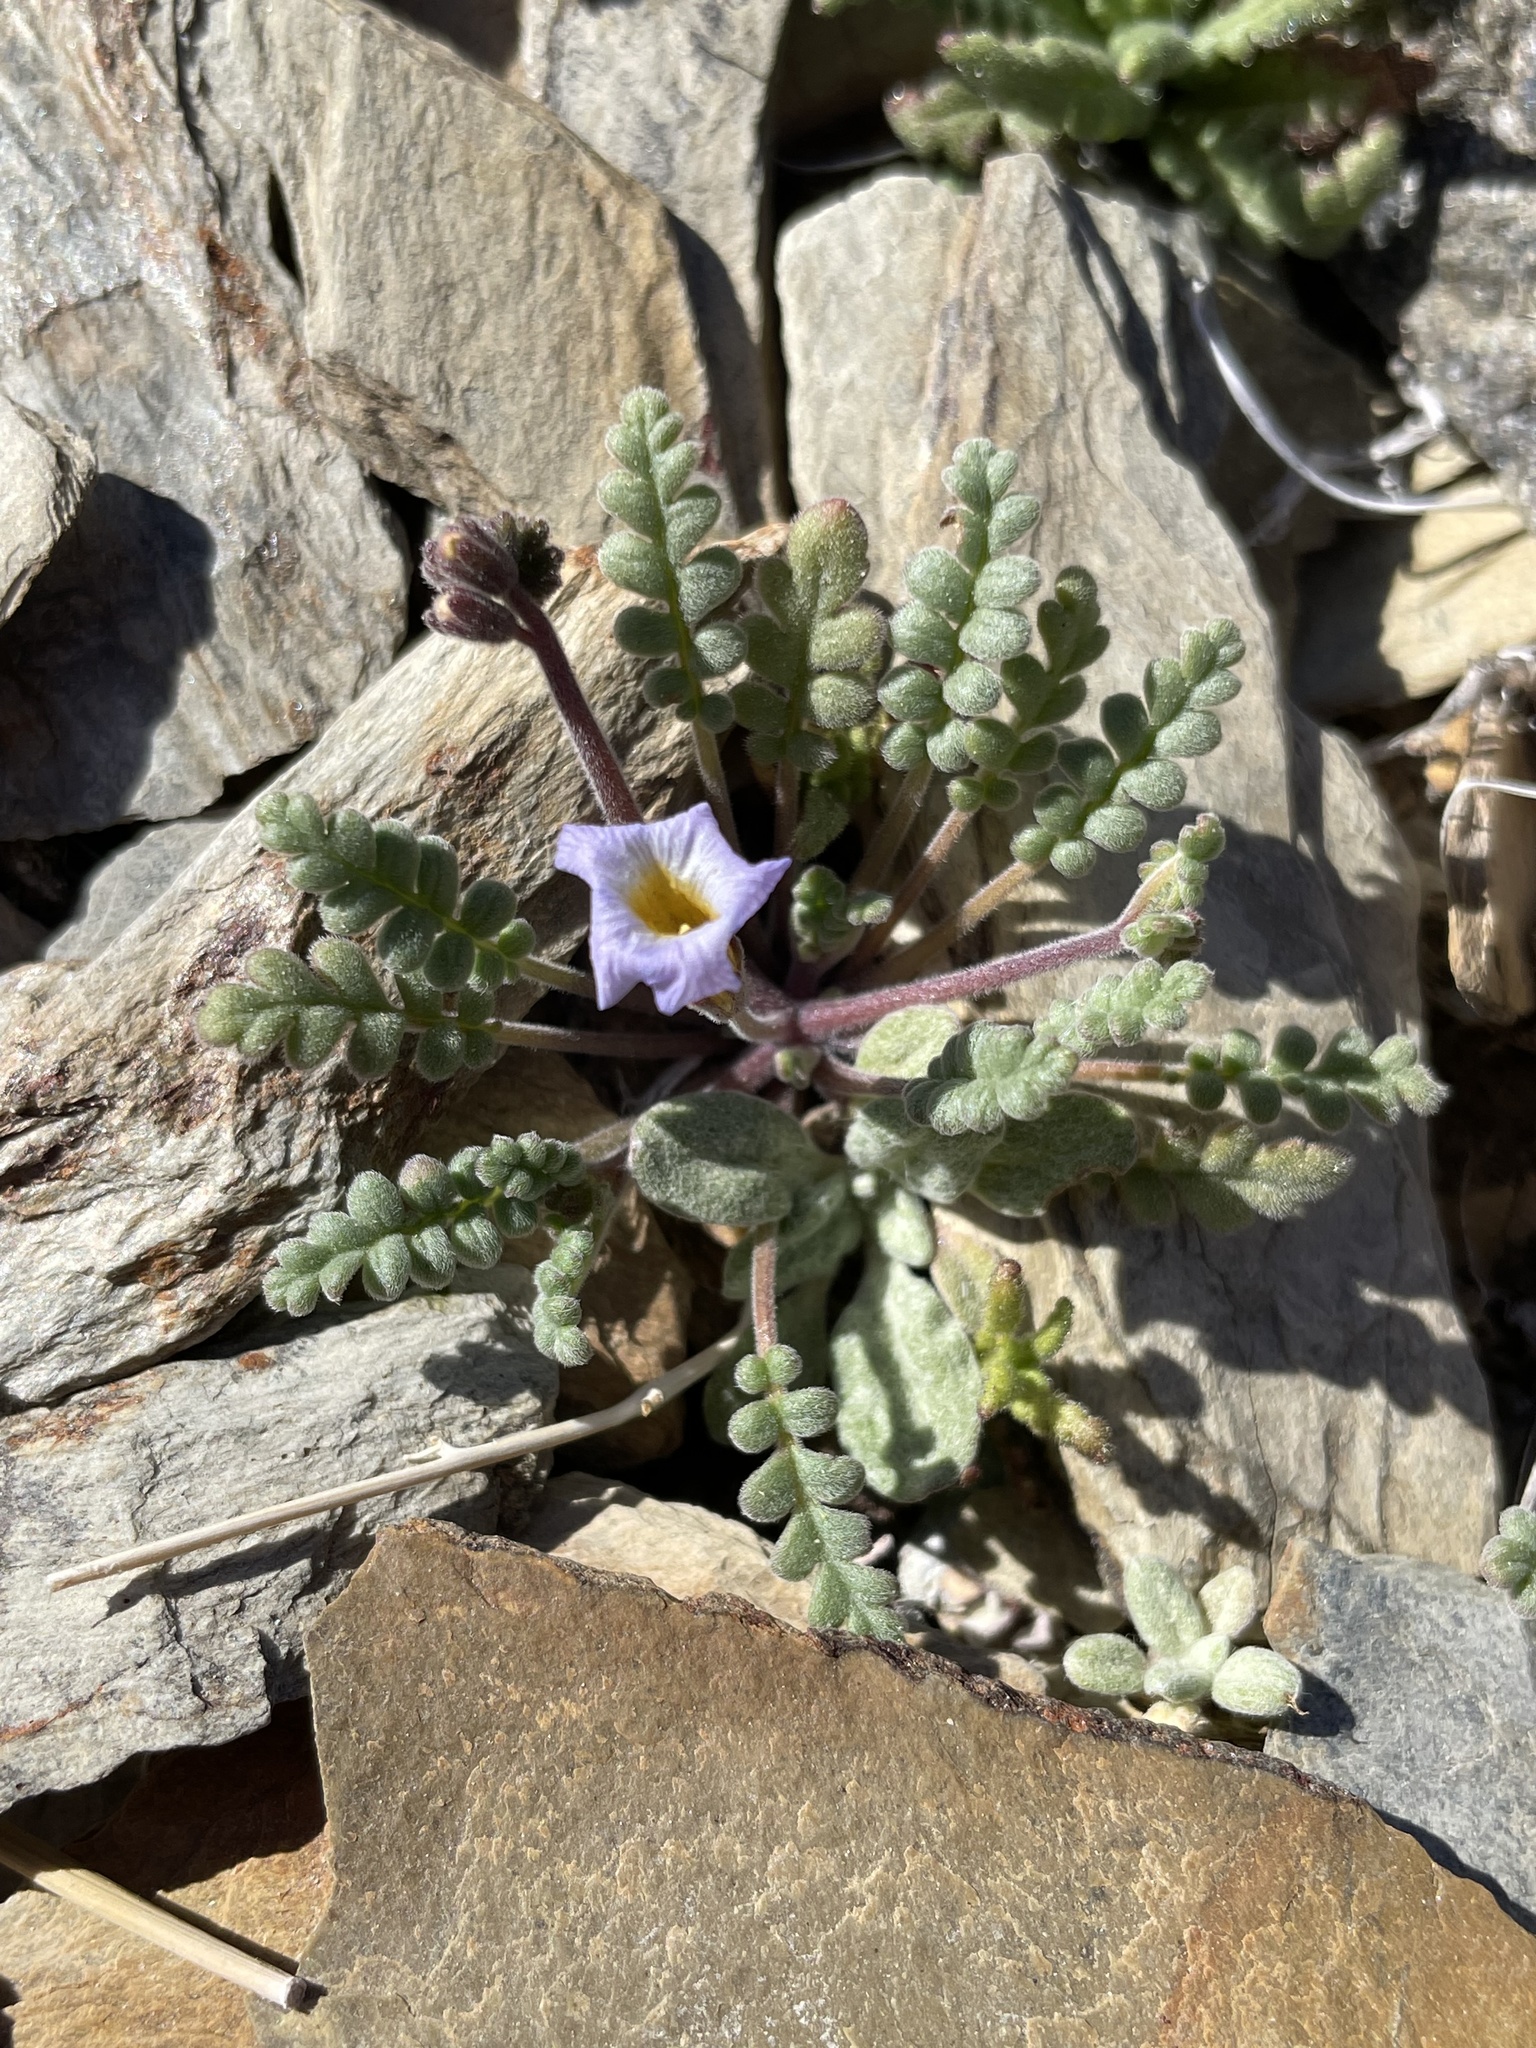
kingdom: Plantae
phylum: Tracheophyta
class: Magnoliopsida
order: Boraginales
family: Hydrophyllaceae
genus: Phacelia
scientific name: Phacelia fremontii
